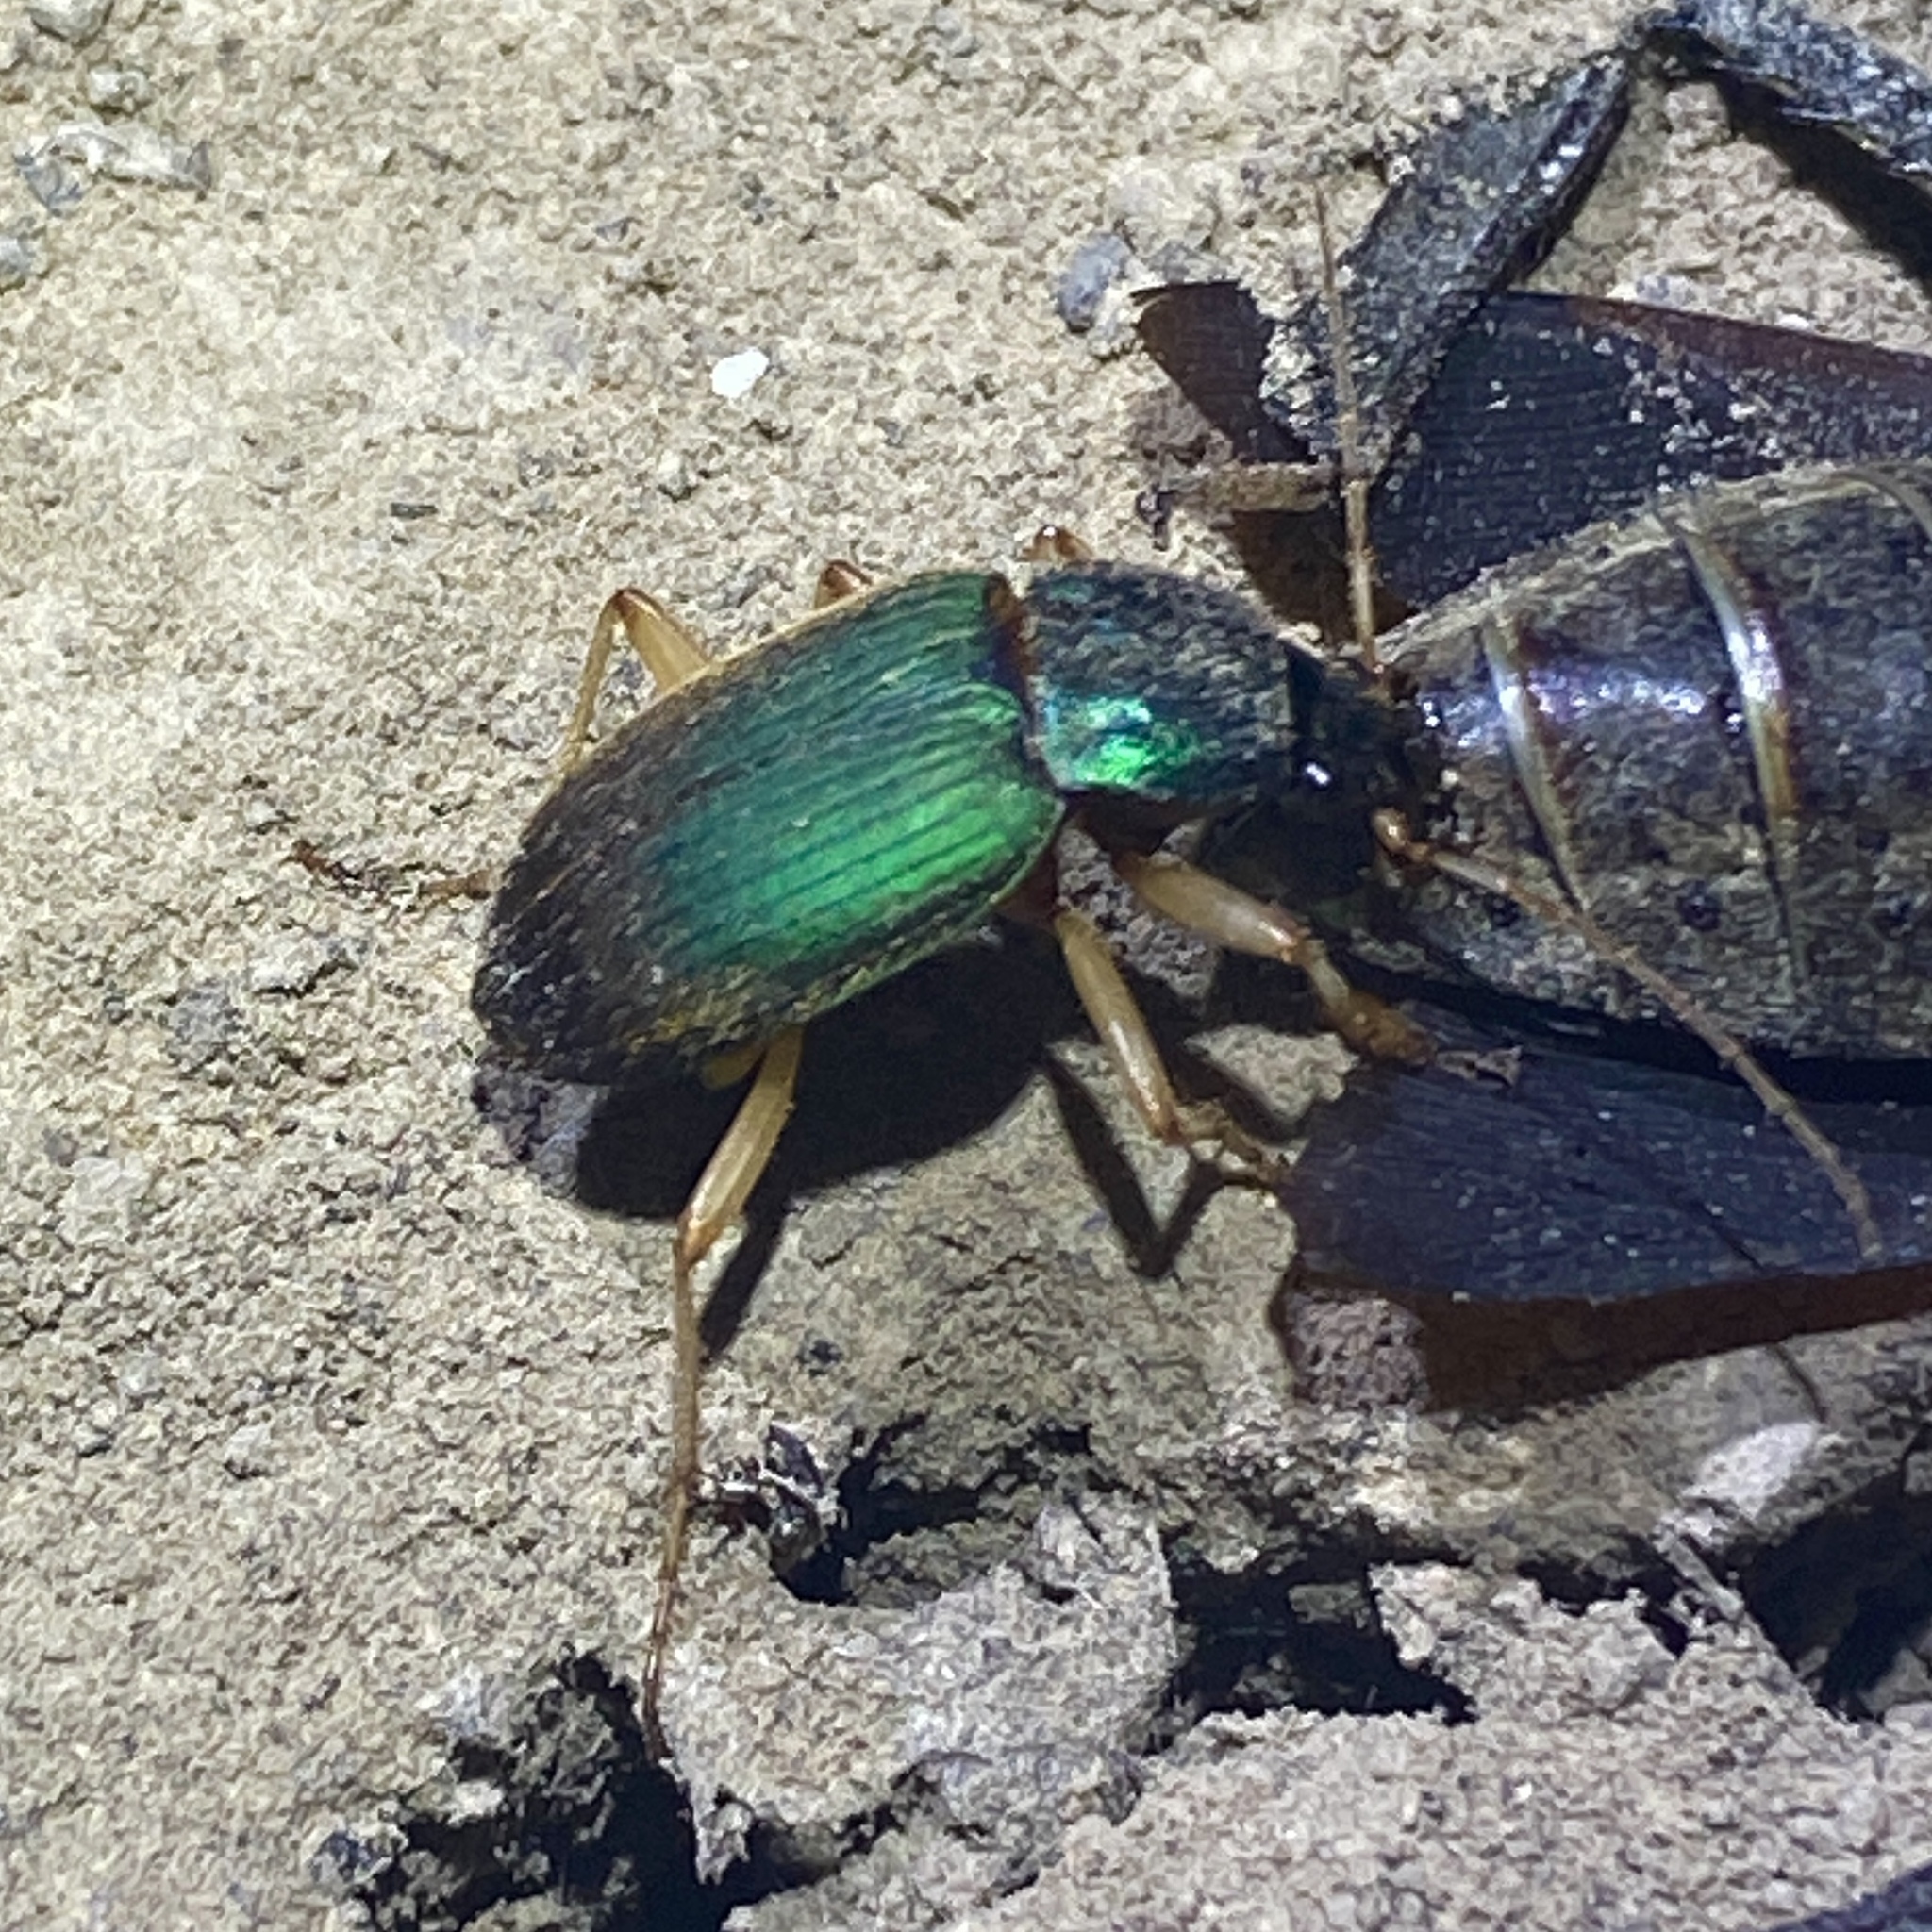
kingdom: Animalia
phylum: Arthropoda
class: Insecta
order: Coleoptera
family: Carabidae
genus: Chlaenius
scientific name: Chlaenius sericeus
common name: Green pubescent ground beetle
